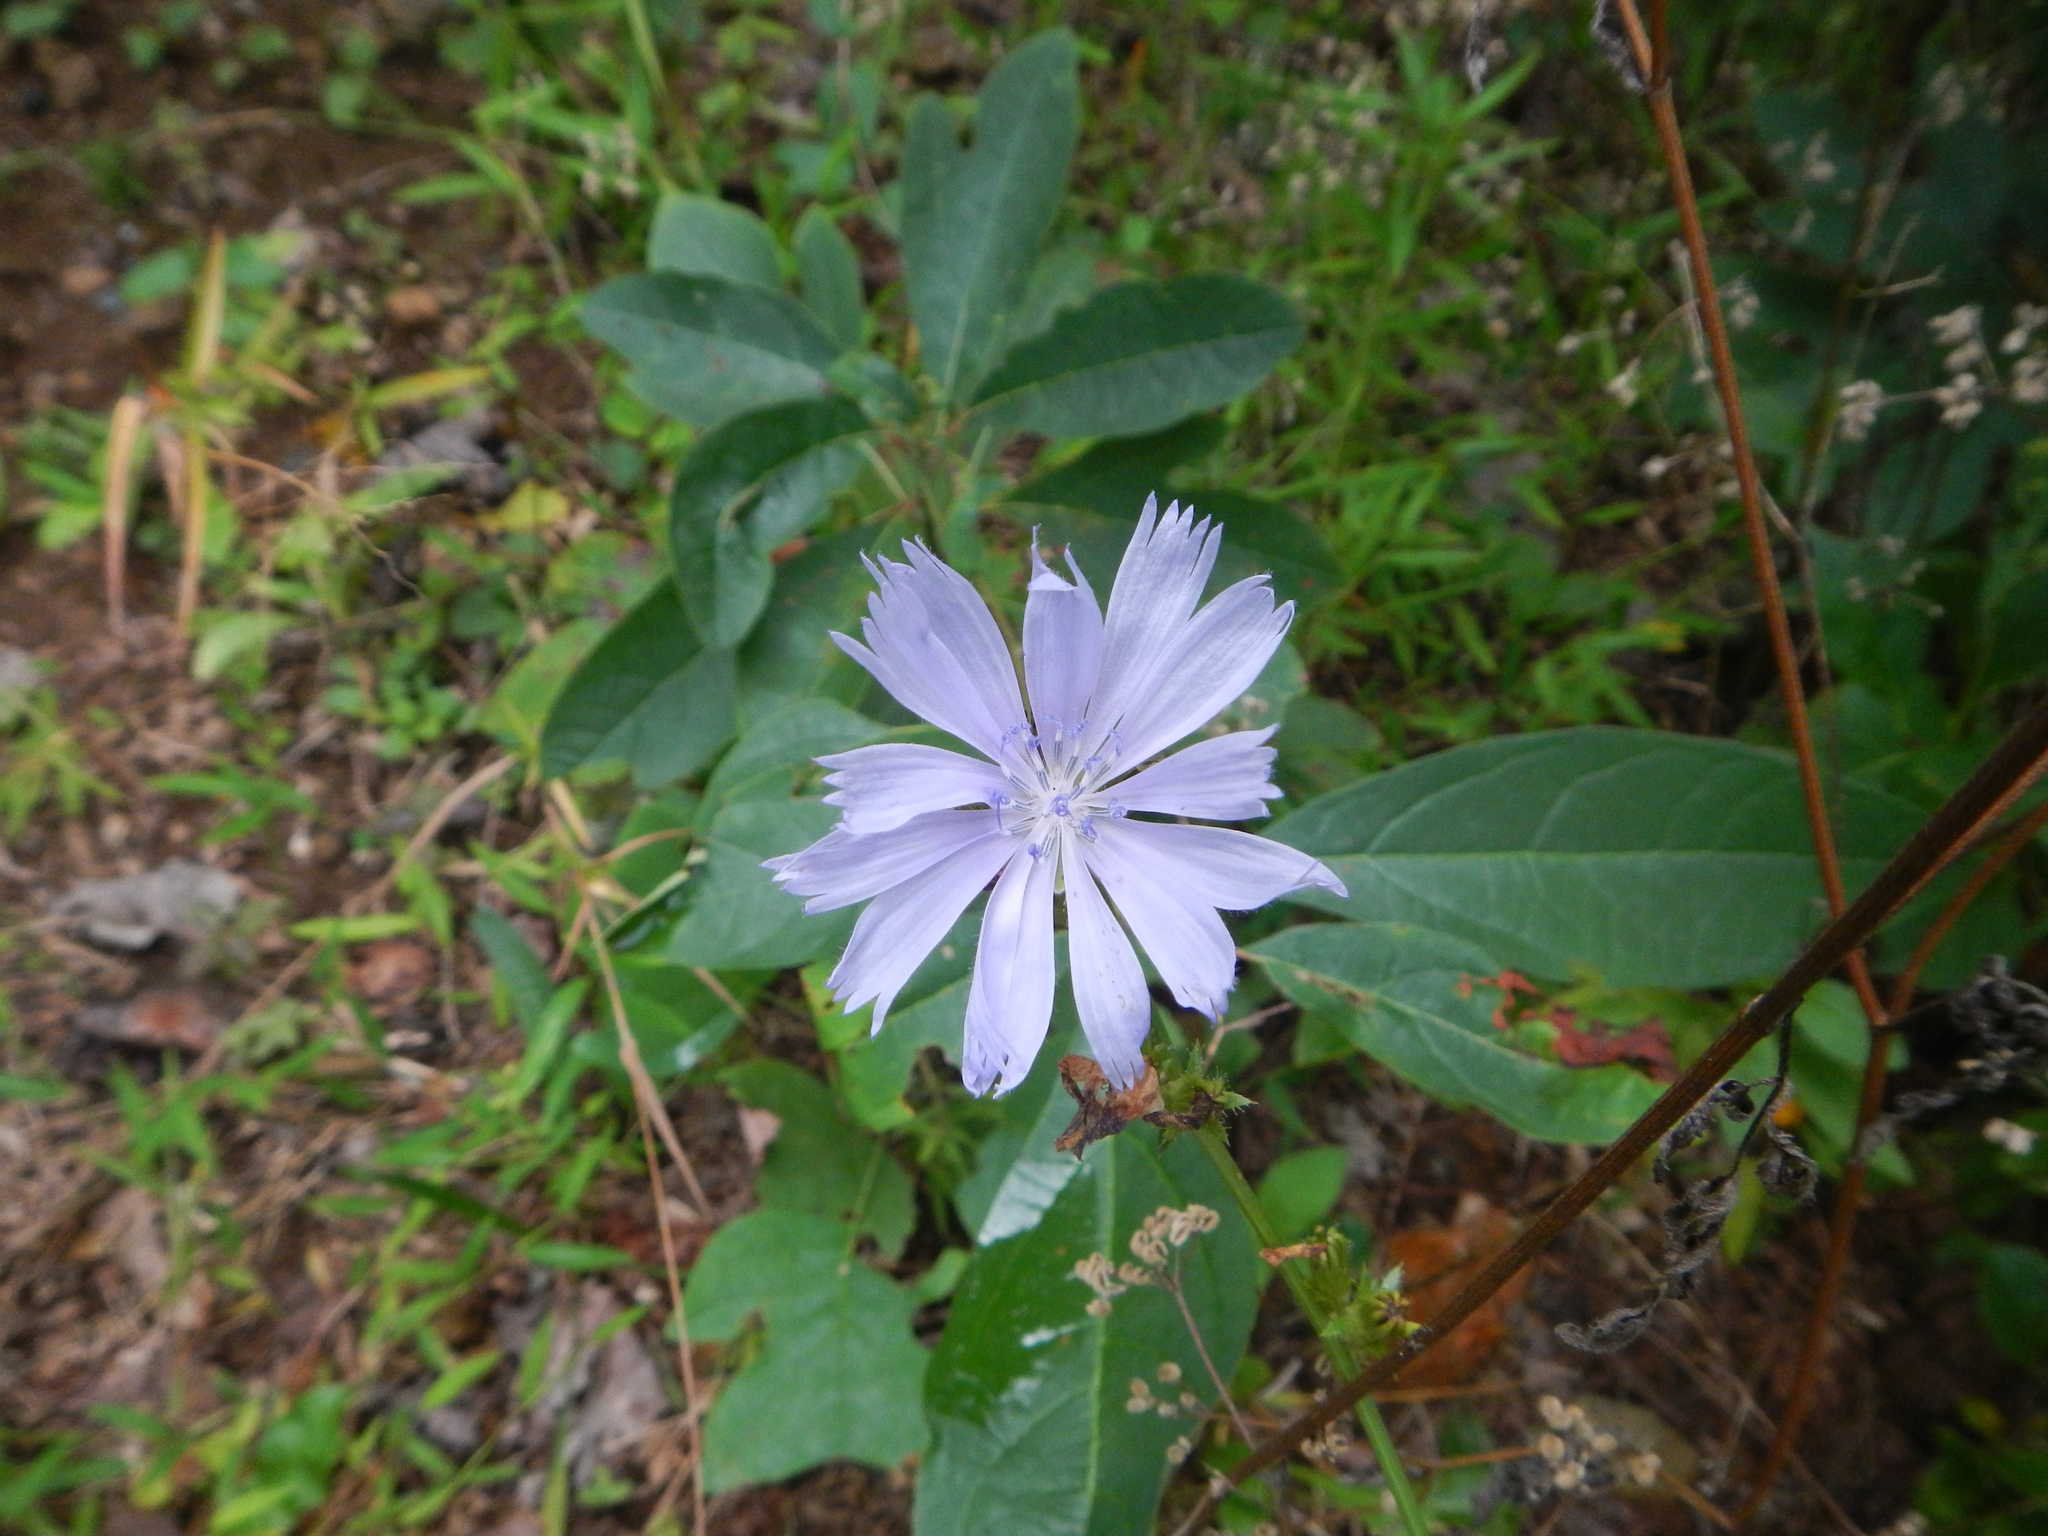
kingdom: Plantae
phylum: Tracheophyta
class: Magnoliopsida
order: Asterales
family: Asteraceae
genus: Cichorium
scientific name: Cichorium intybus
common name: Chicory
